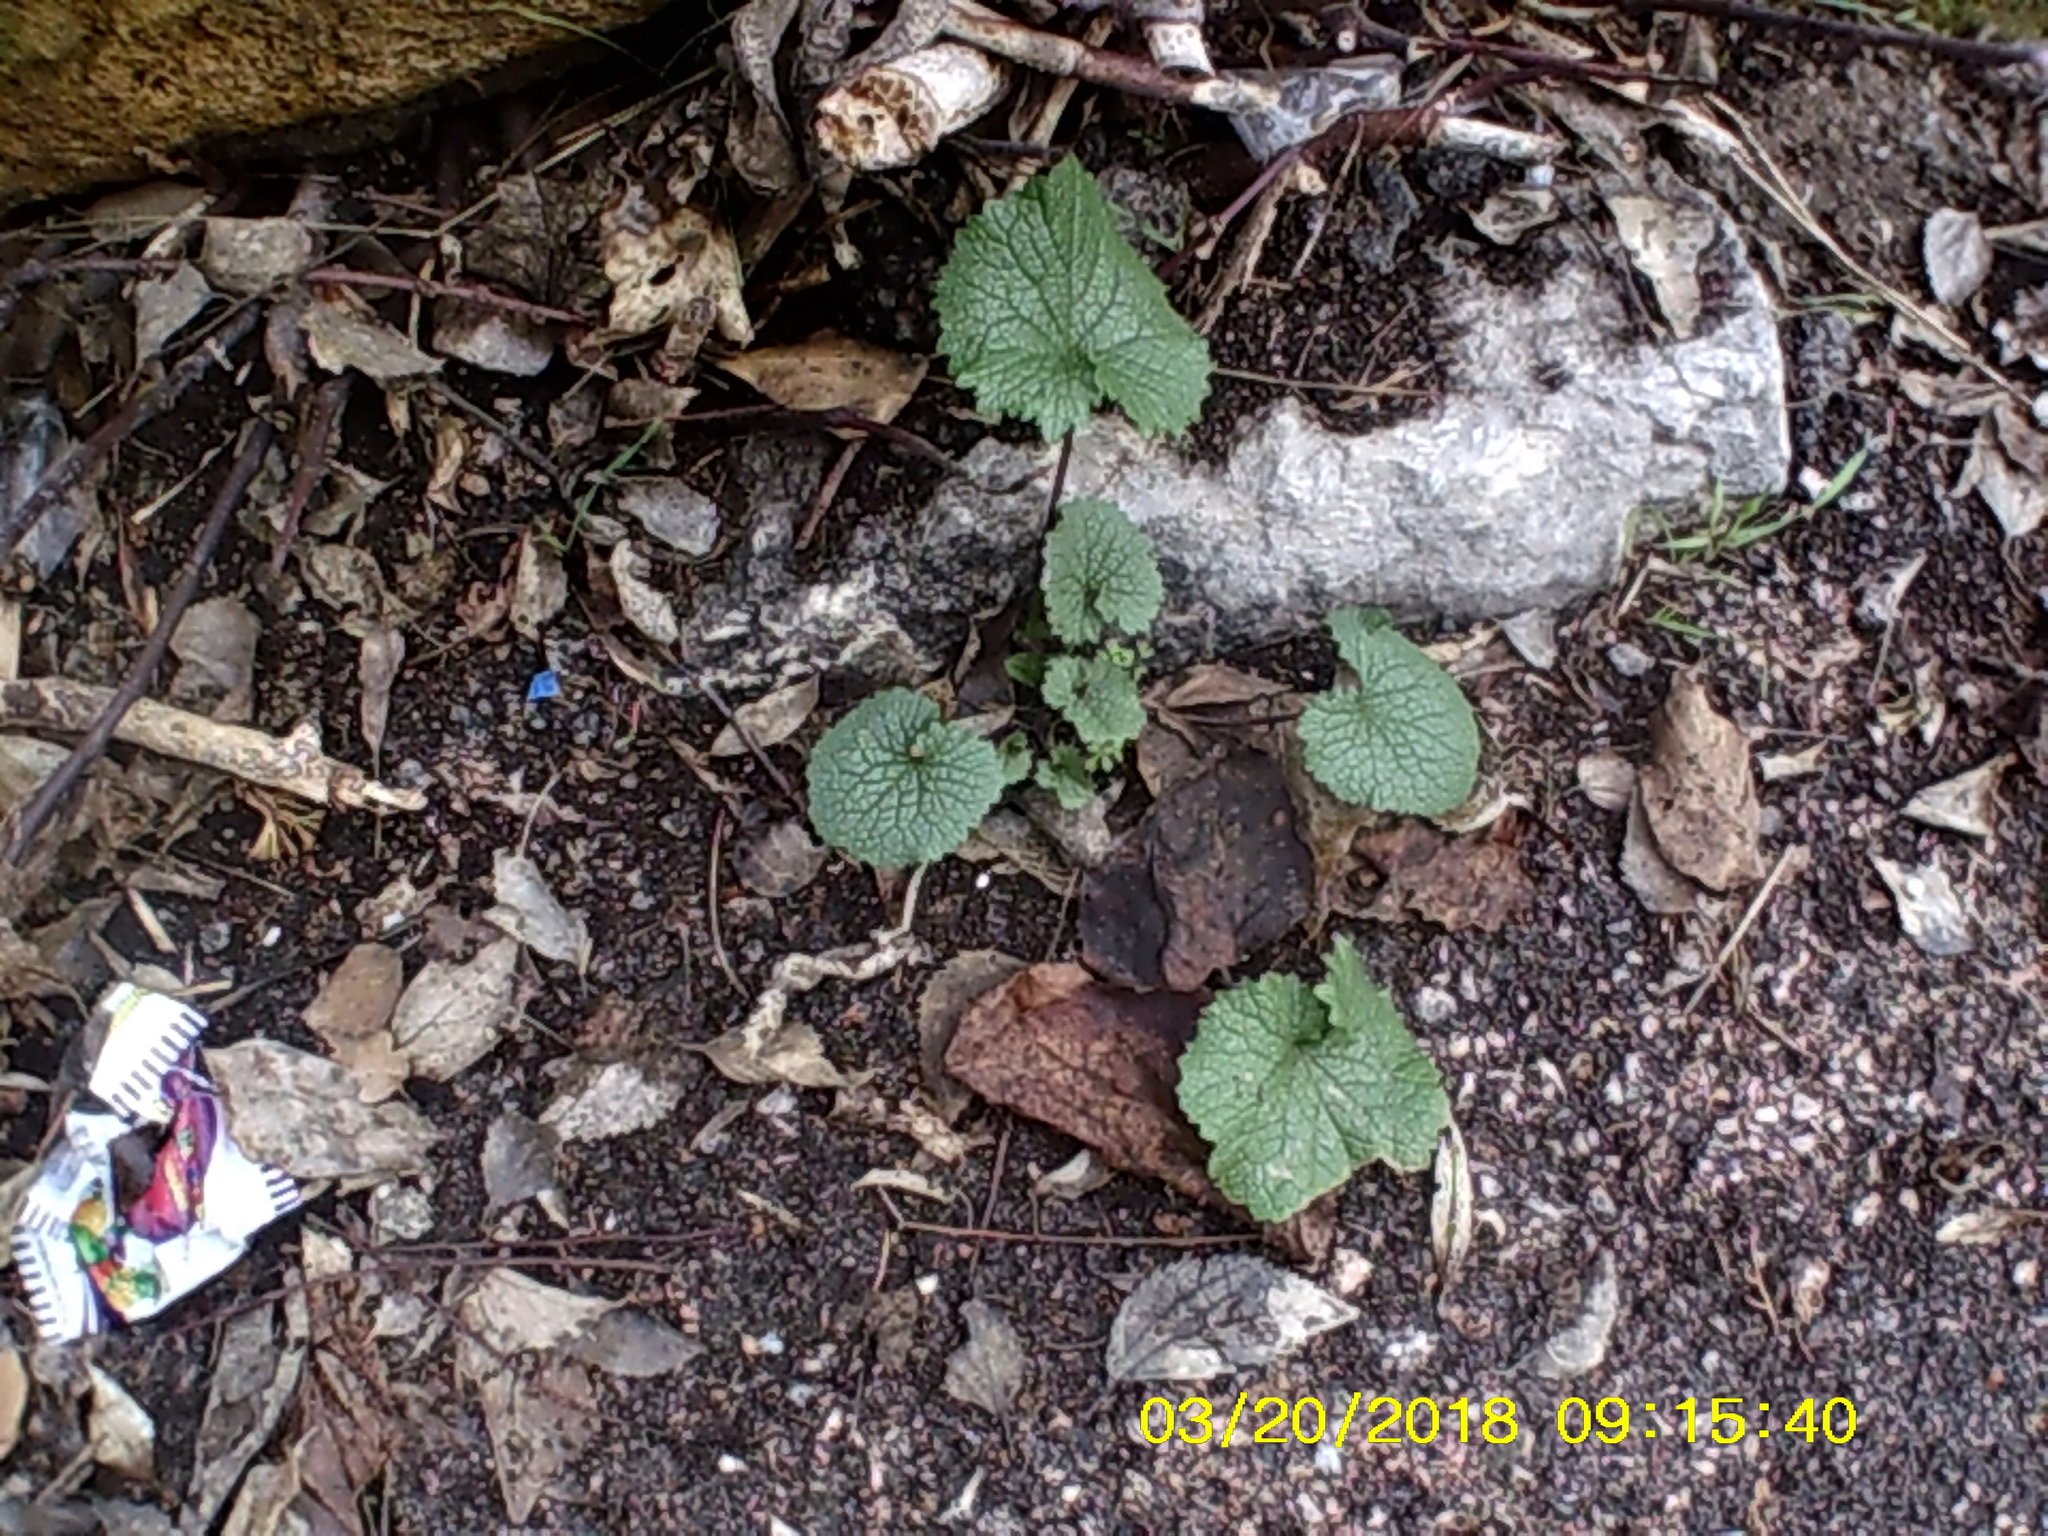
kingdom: Plantae
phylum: Tracheophyta
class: Magnoliopsida
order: Brassicales
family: Brassicaceae
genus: Alliaria
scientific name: Alliaria petiolata
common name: Garlic mustard
